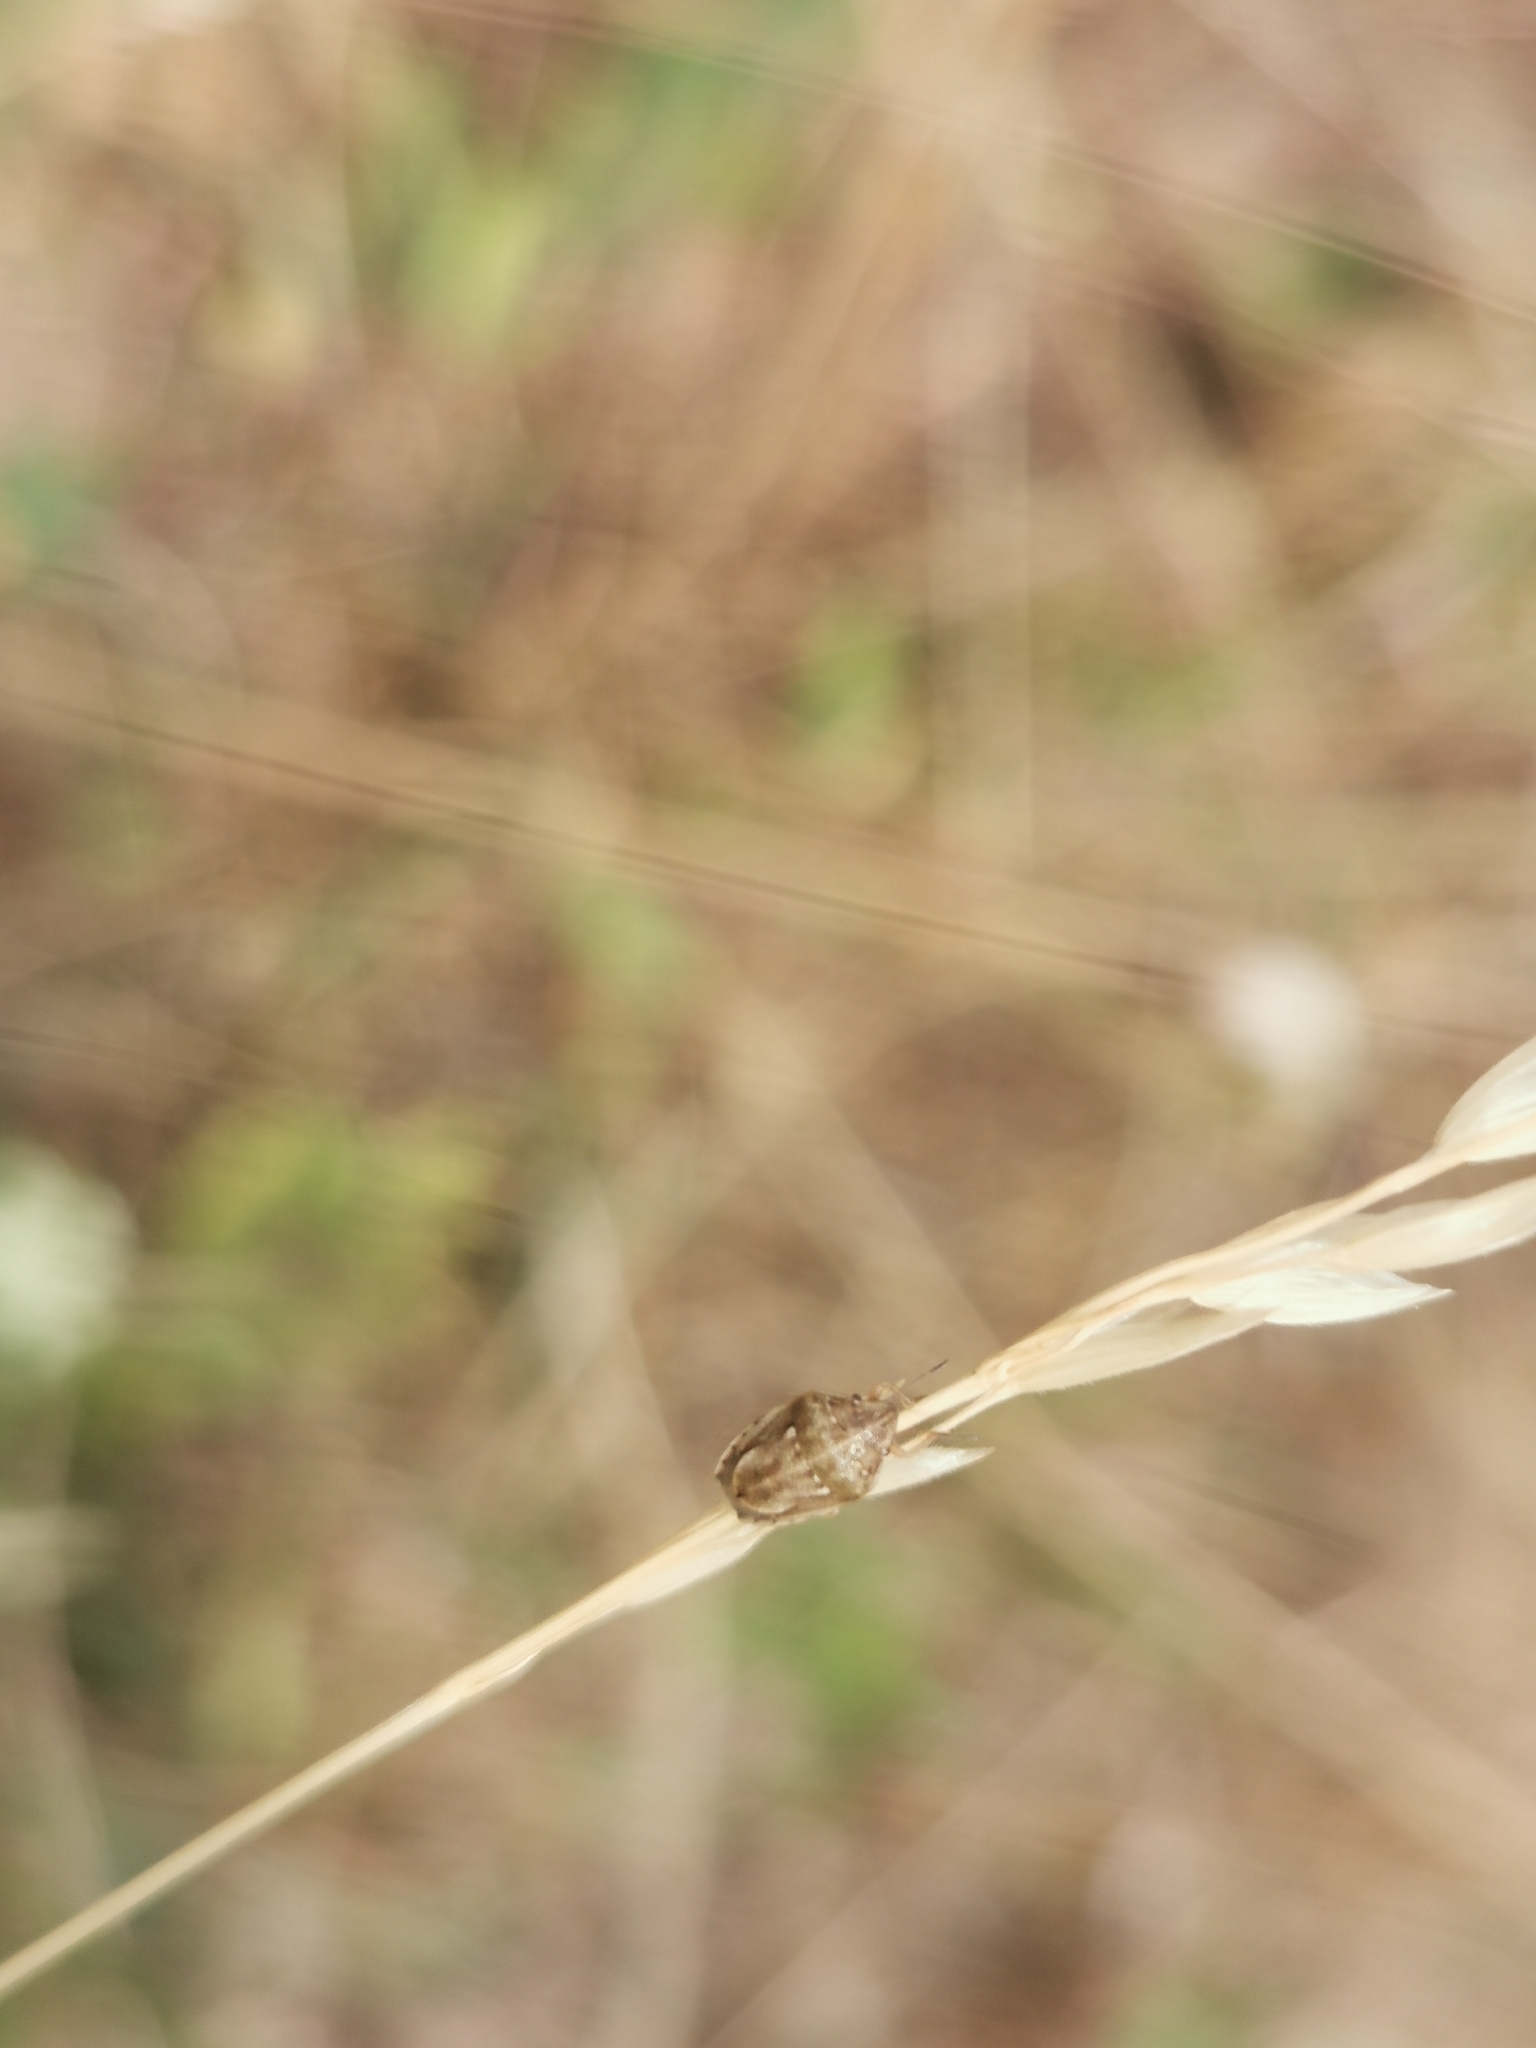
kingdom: Animalia
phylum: Arthropoda
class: Insecta
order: Hemiptera
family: Pentatomidae
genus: Neottiglossa
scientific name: Neottiglossa leporina
